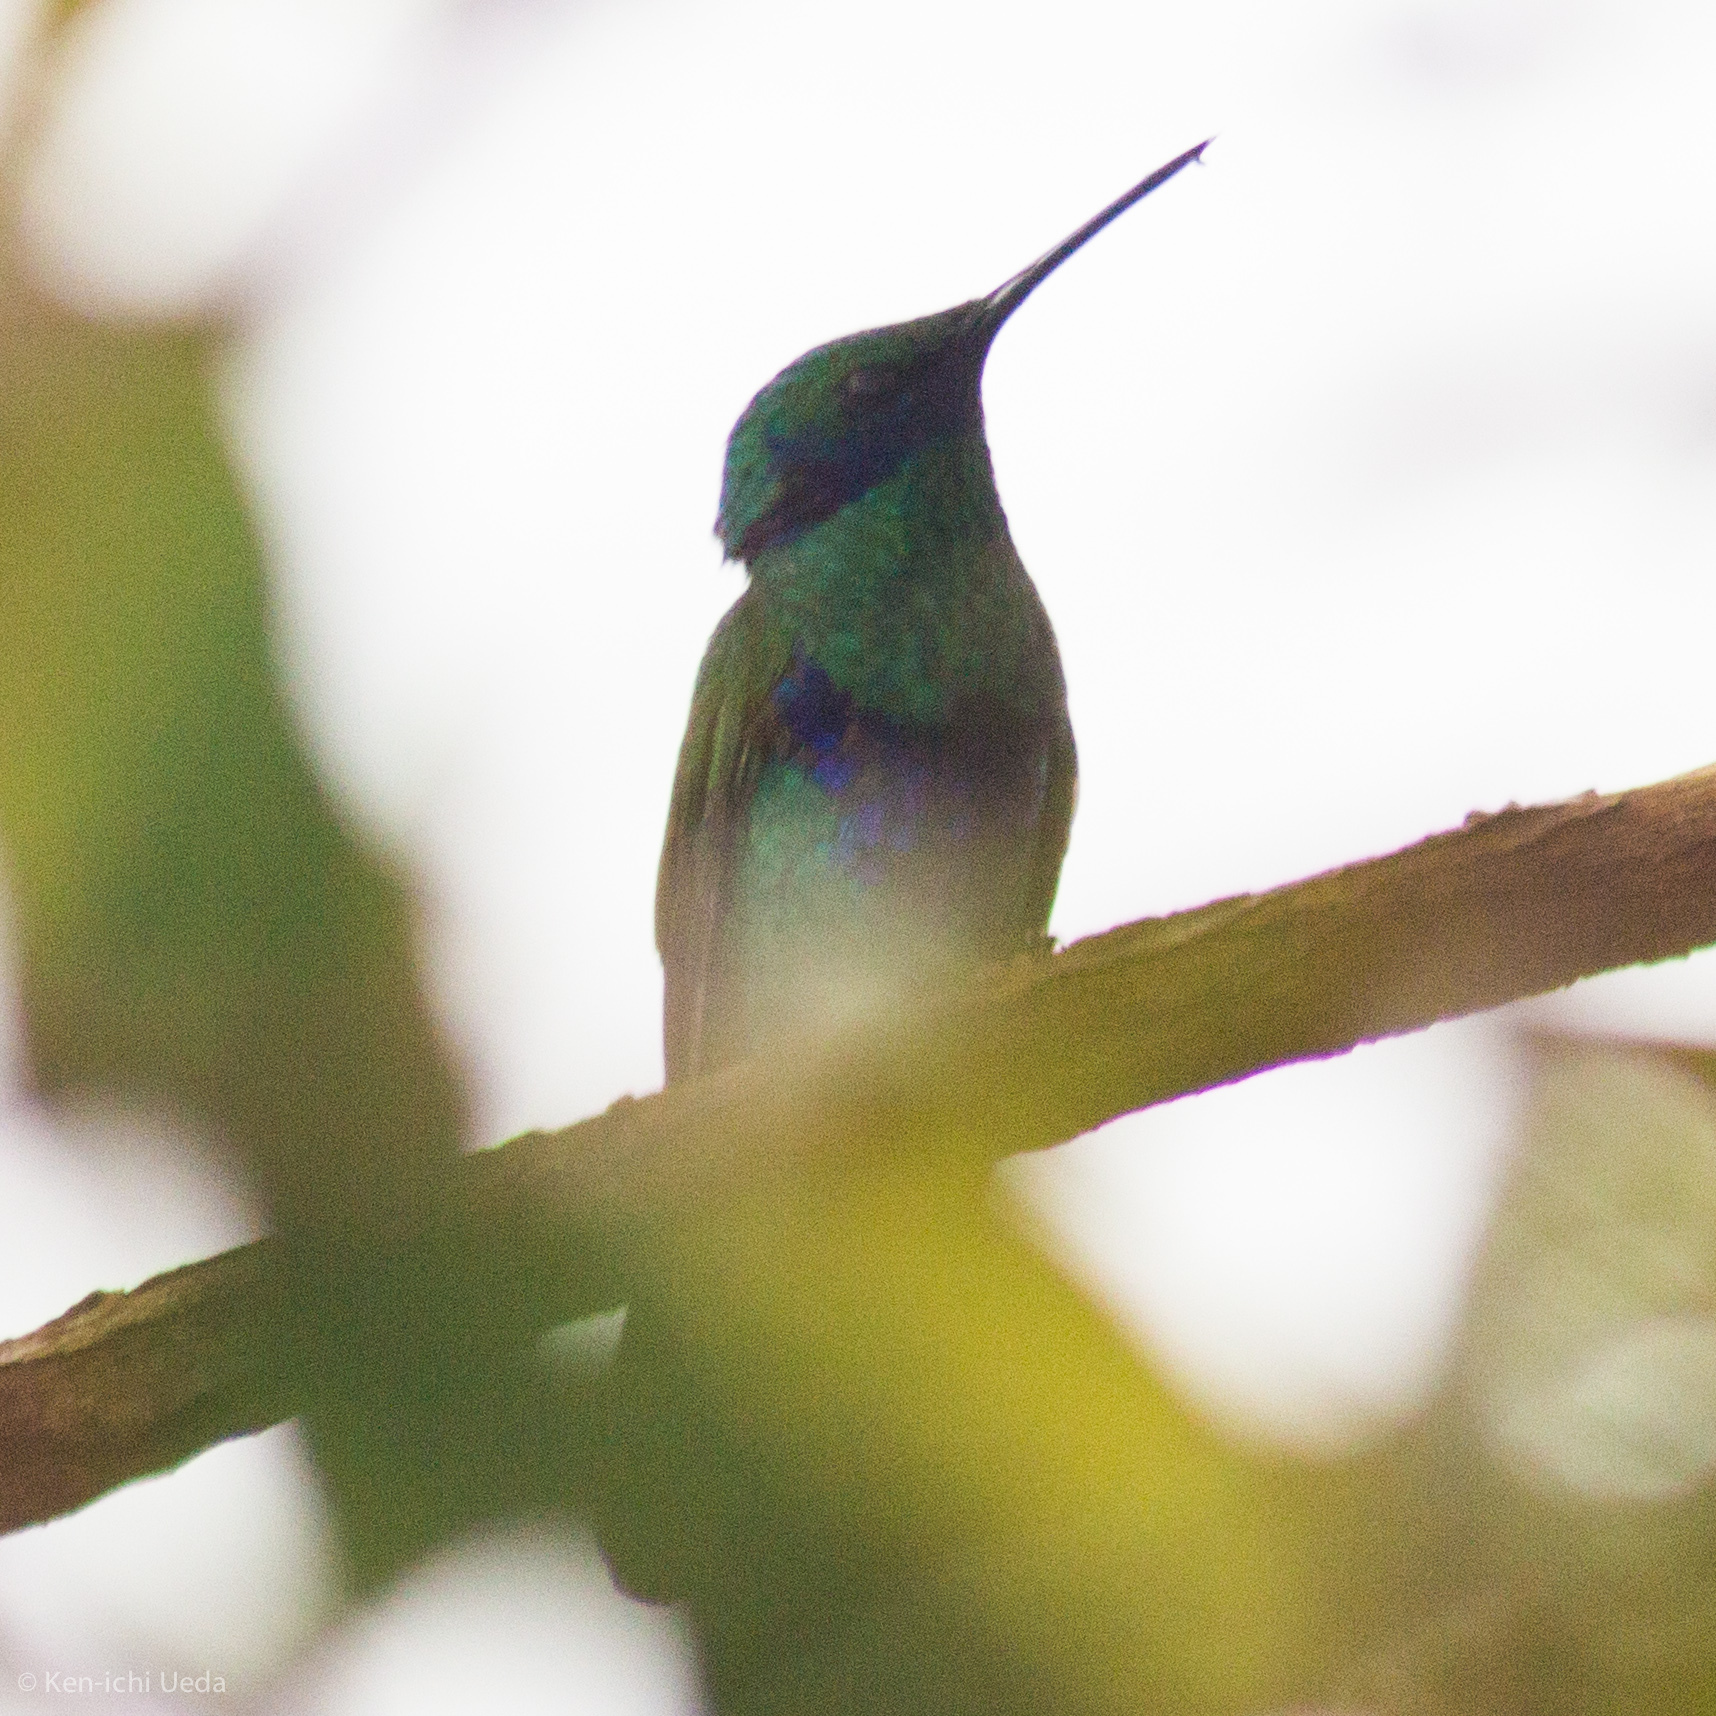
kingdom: Animalia
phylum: Chordata
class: Aves
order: Apodiformes
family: Trochilidae
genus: Colibri
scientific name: Colibri coruscans
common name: Sparkling violetear
